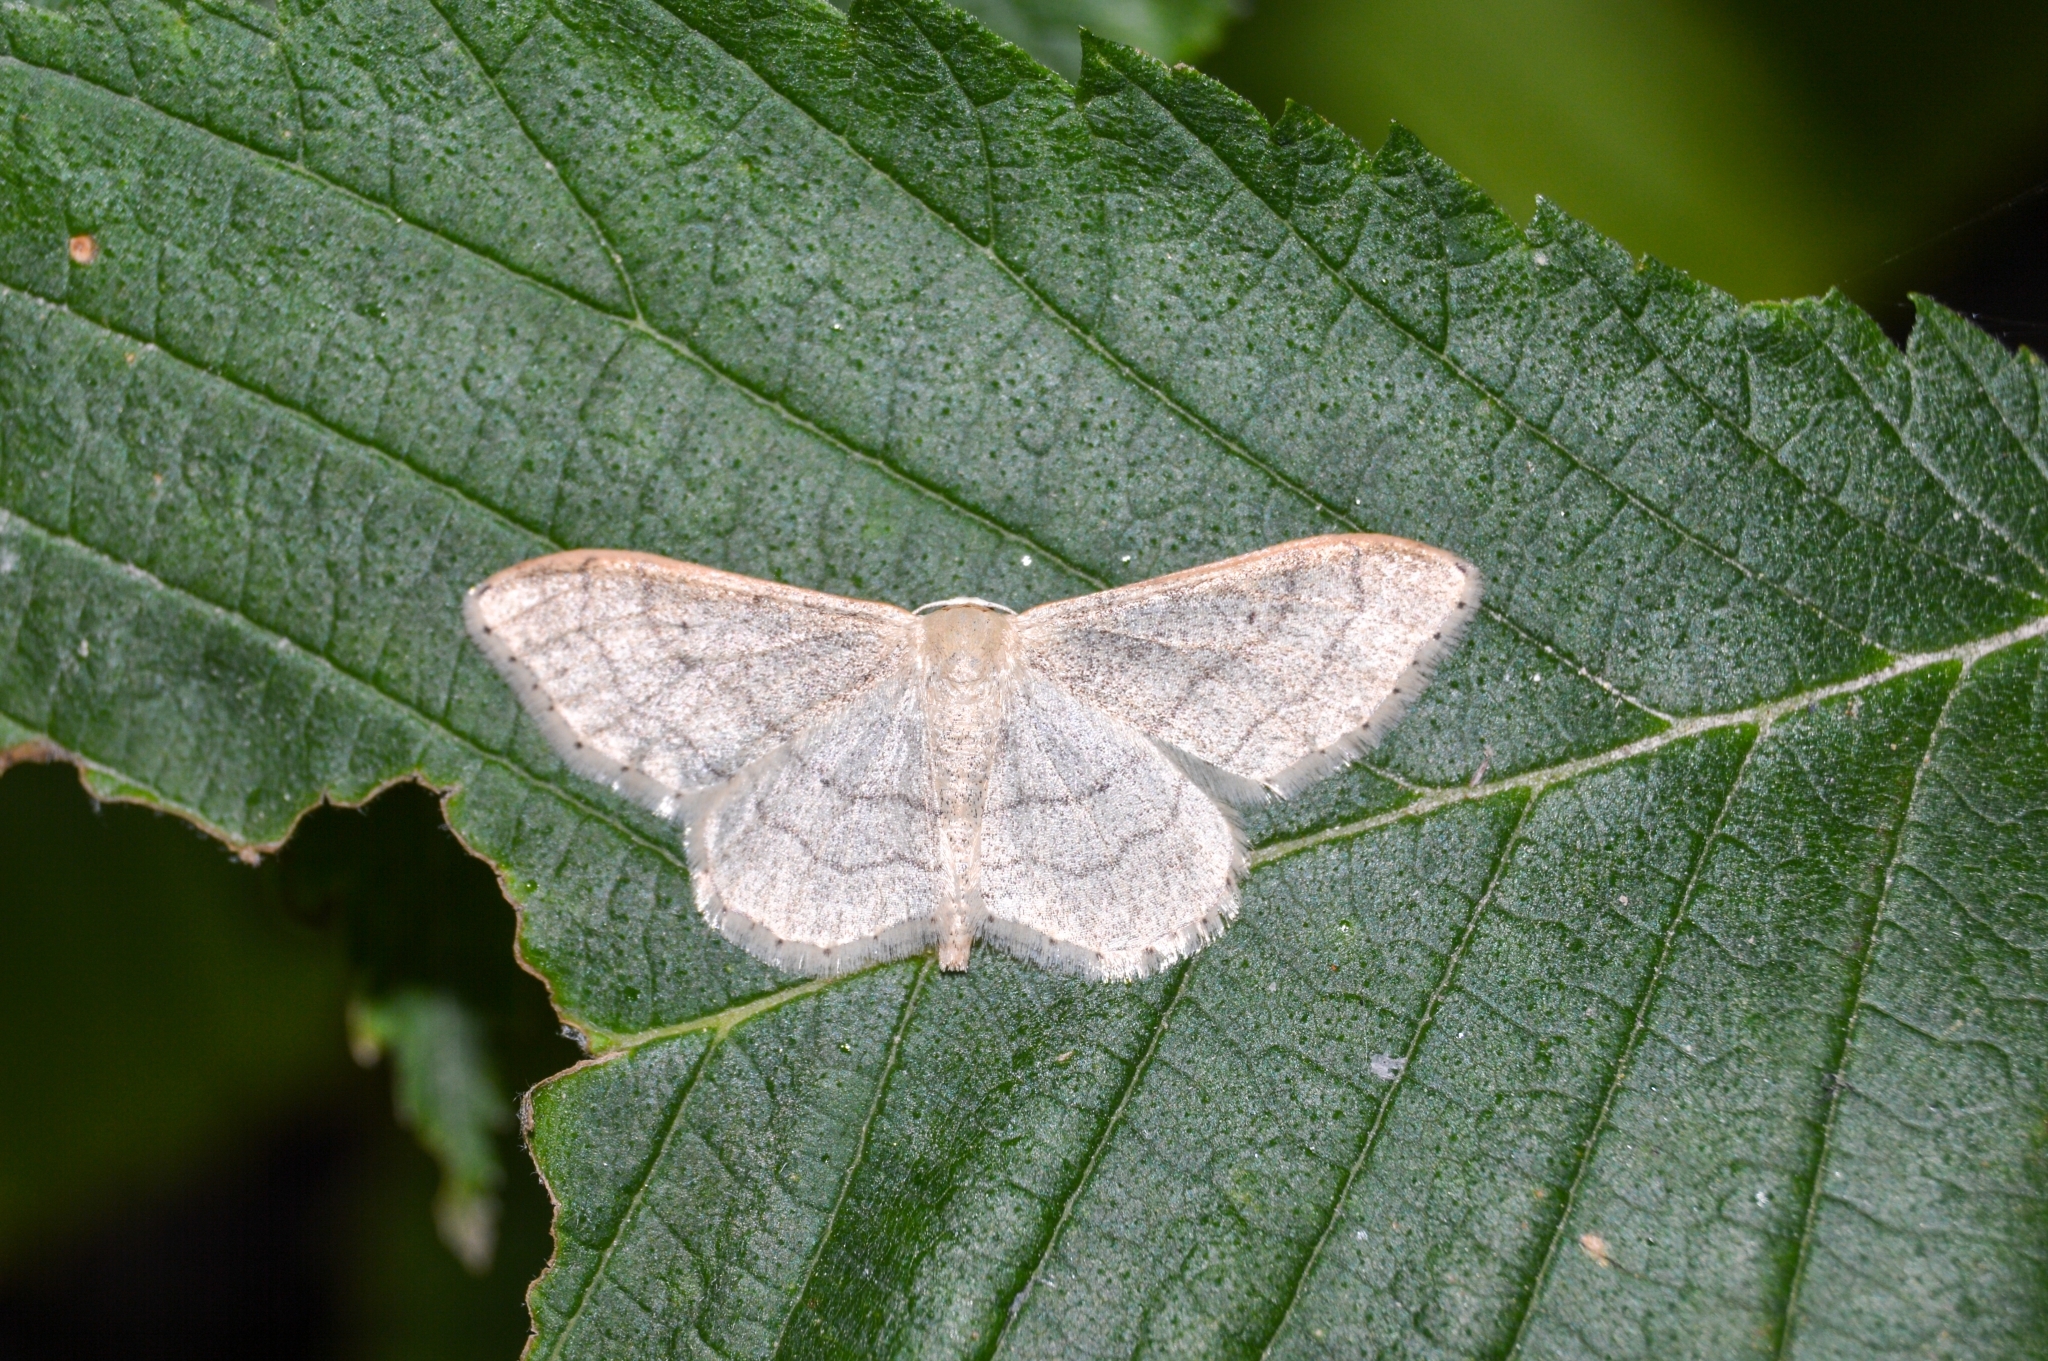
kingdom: Animalia
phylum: Arthropoda
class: Insecta
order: Lepidoptera
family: Geometridae
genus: Idaea
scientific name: Idaea aversata
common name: Riband wave
